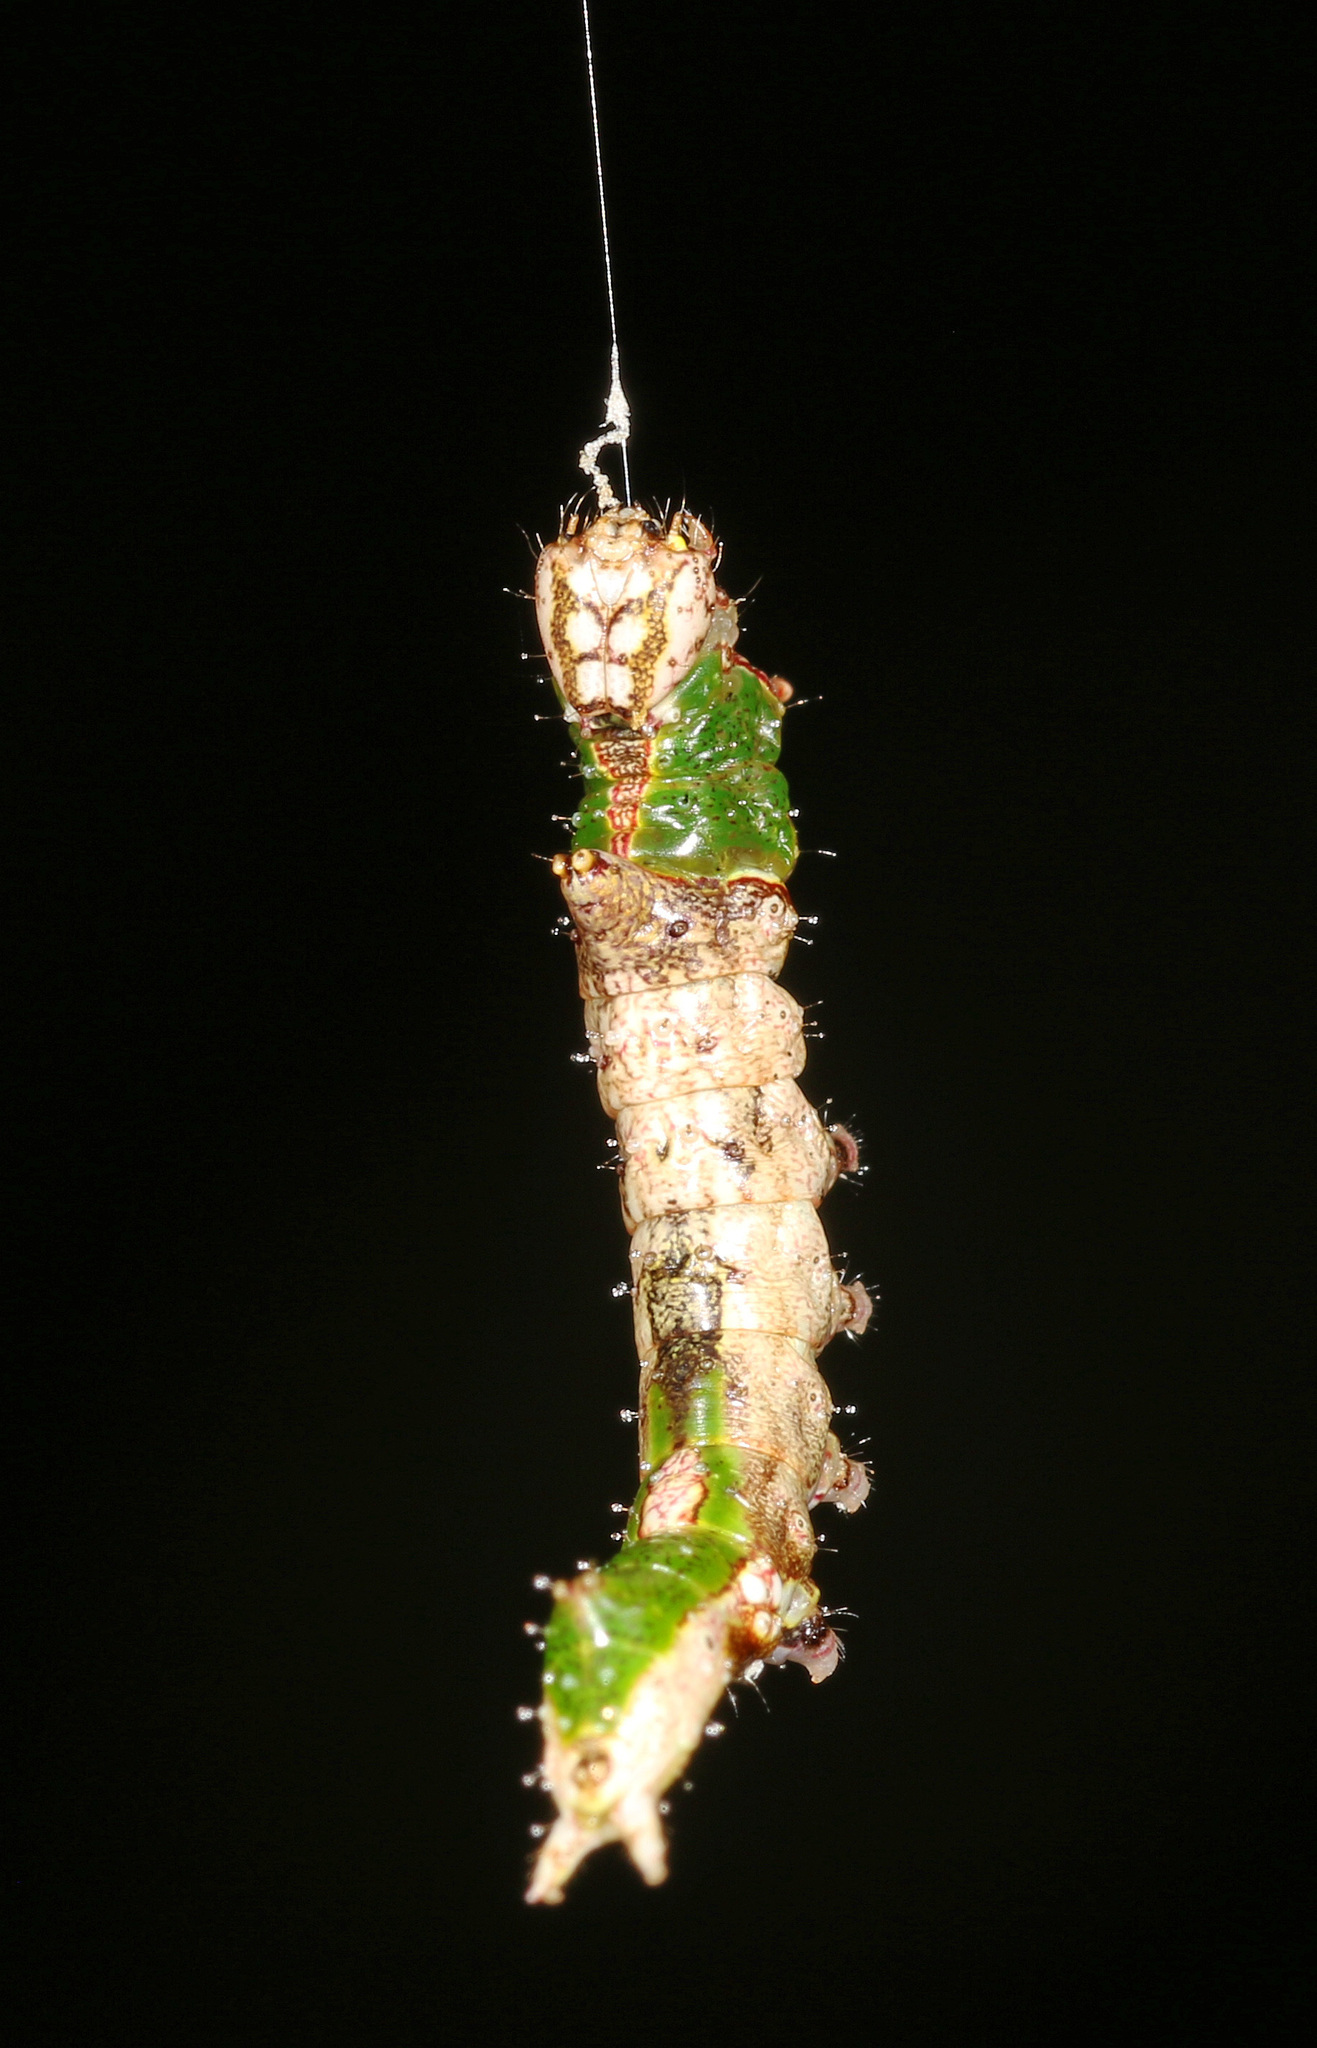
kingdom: Animalia
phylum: Arthropoda
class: Insecta
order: Lepidoptera
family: Notodontidae
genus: Oligocentria
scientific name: Oligocentria Ianassa lignicolor
